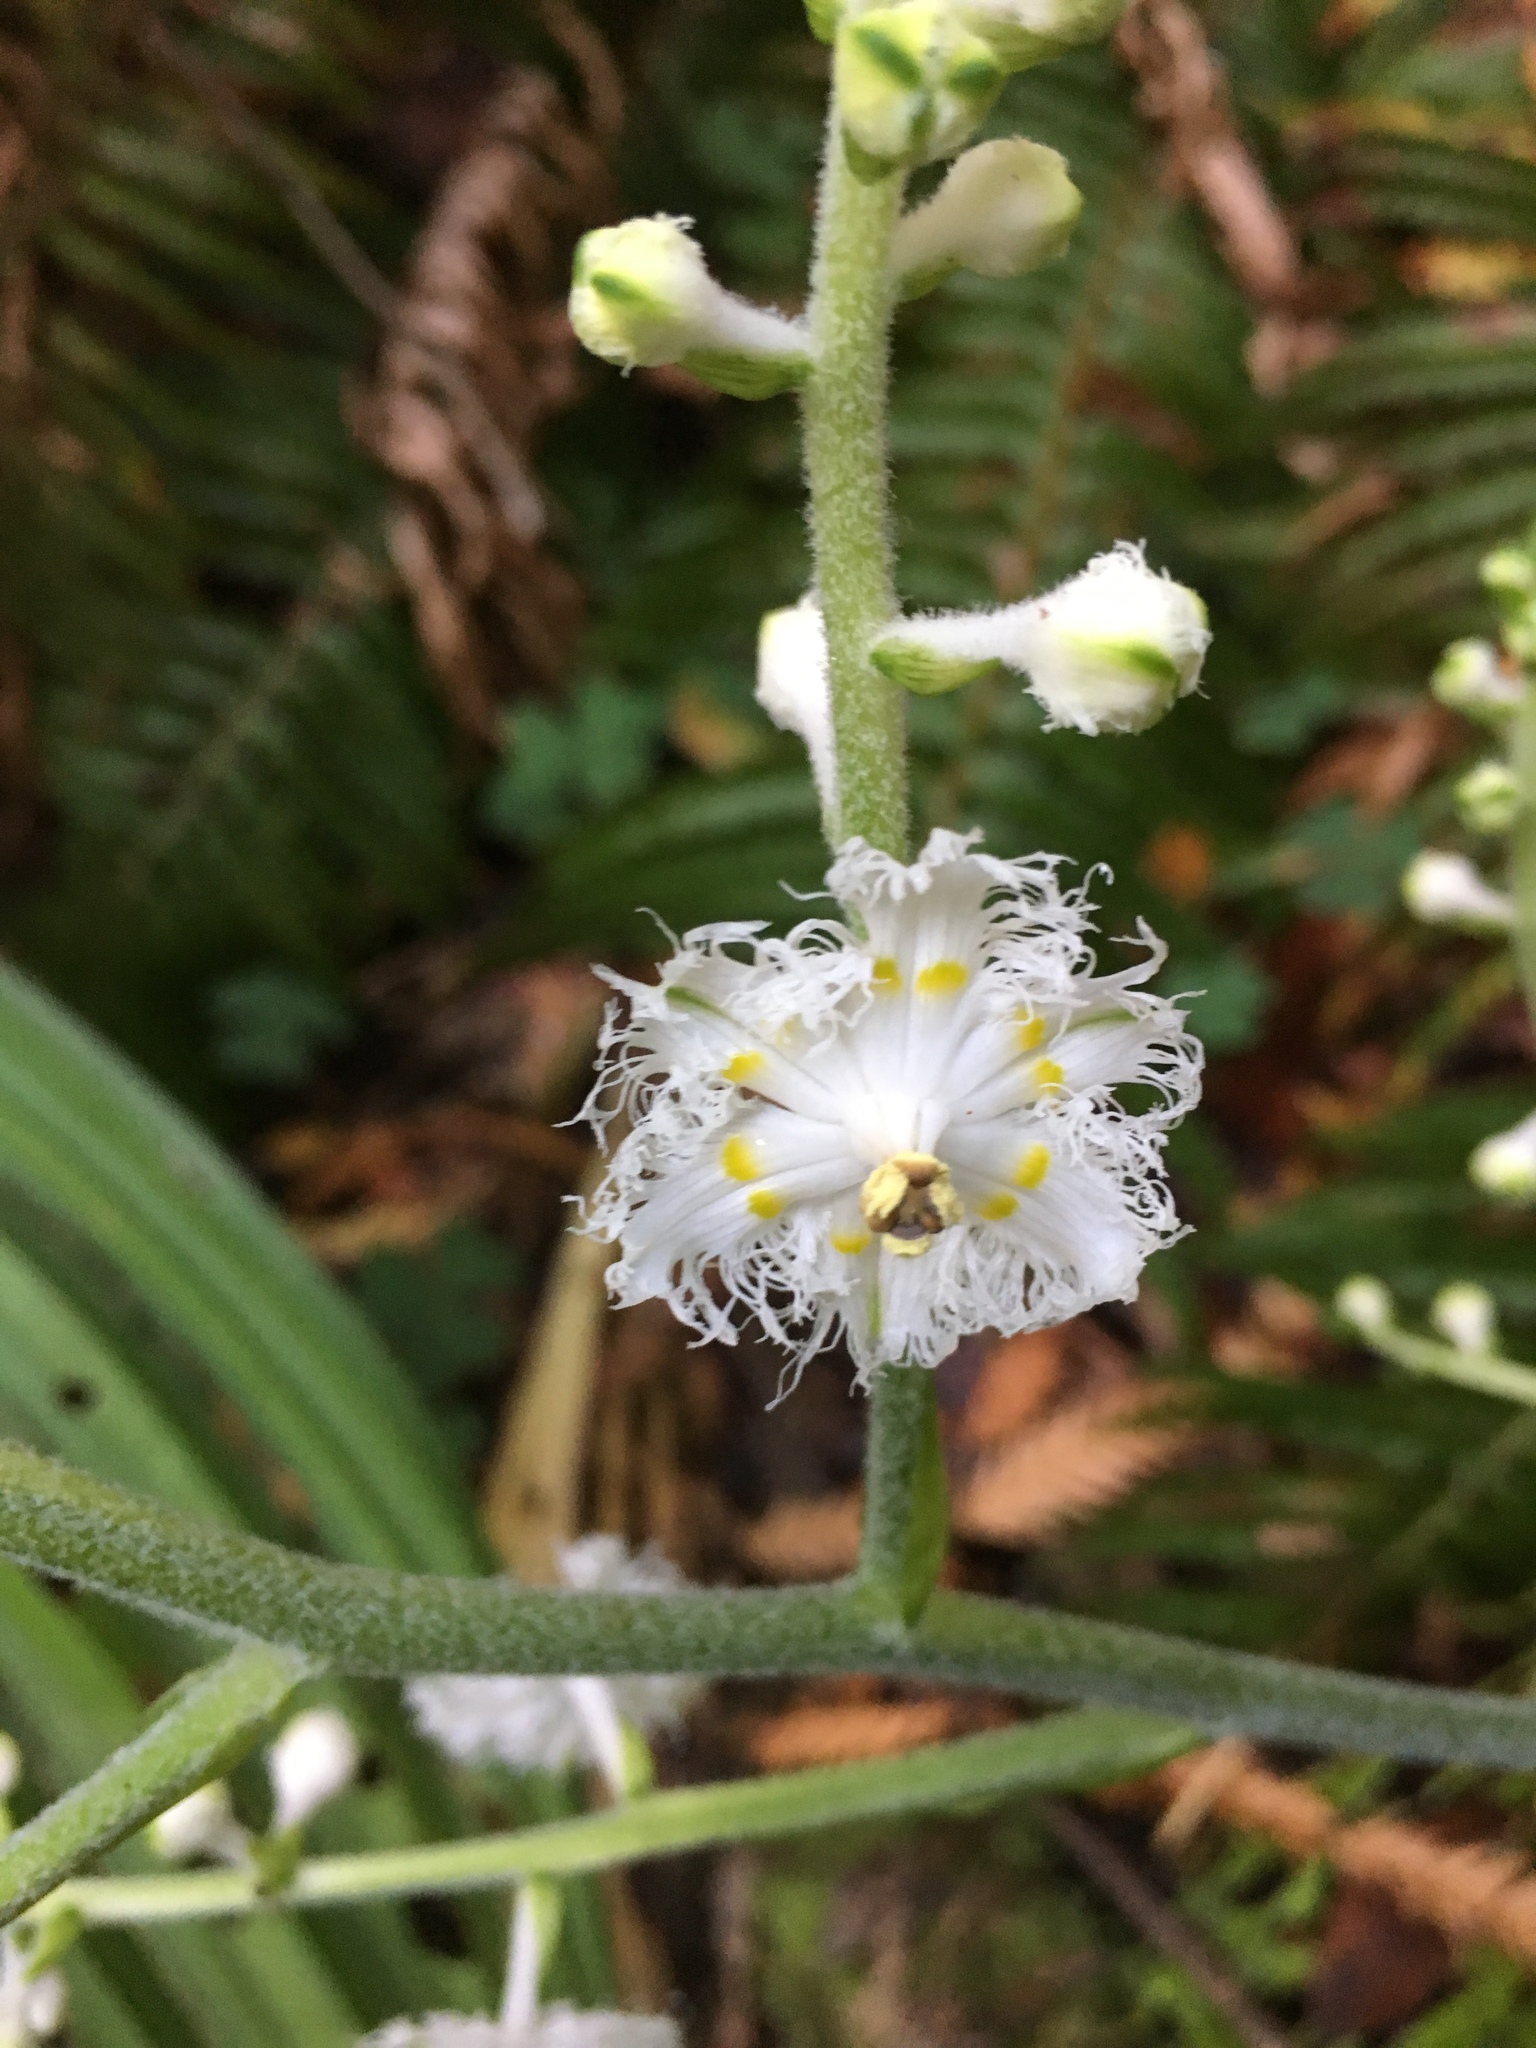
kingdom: Plantae
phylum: Tracheophyta
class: Liliopsida
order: Liliales
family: Melanthiaceae
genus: Veratrum
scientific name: Veratrum fimbriatum
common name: Fringe false hellobore
